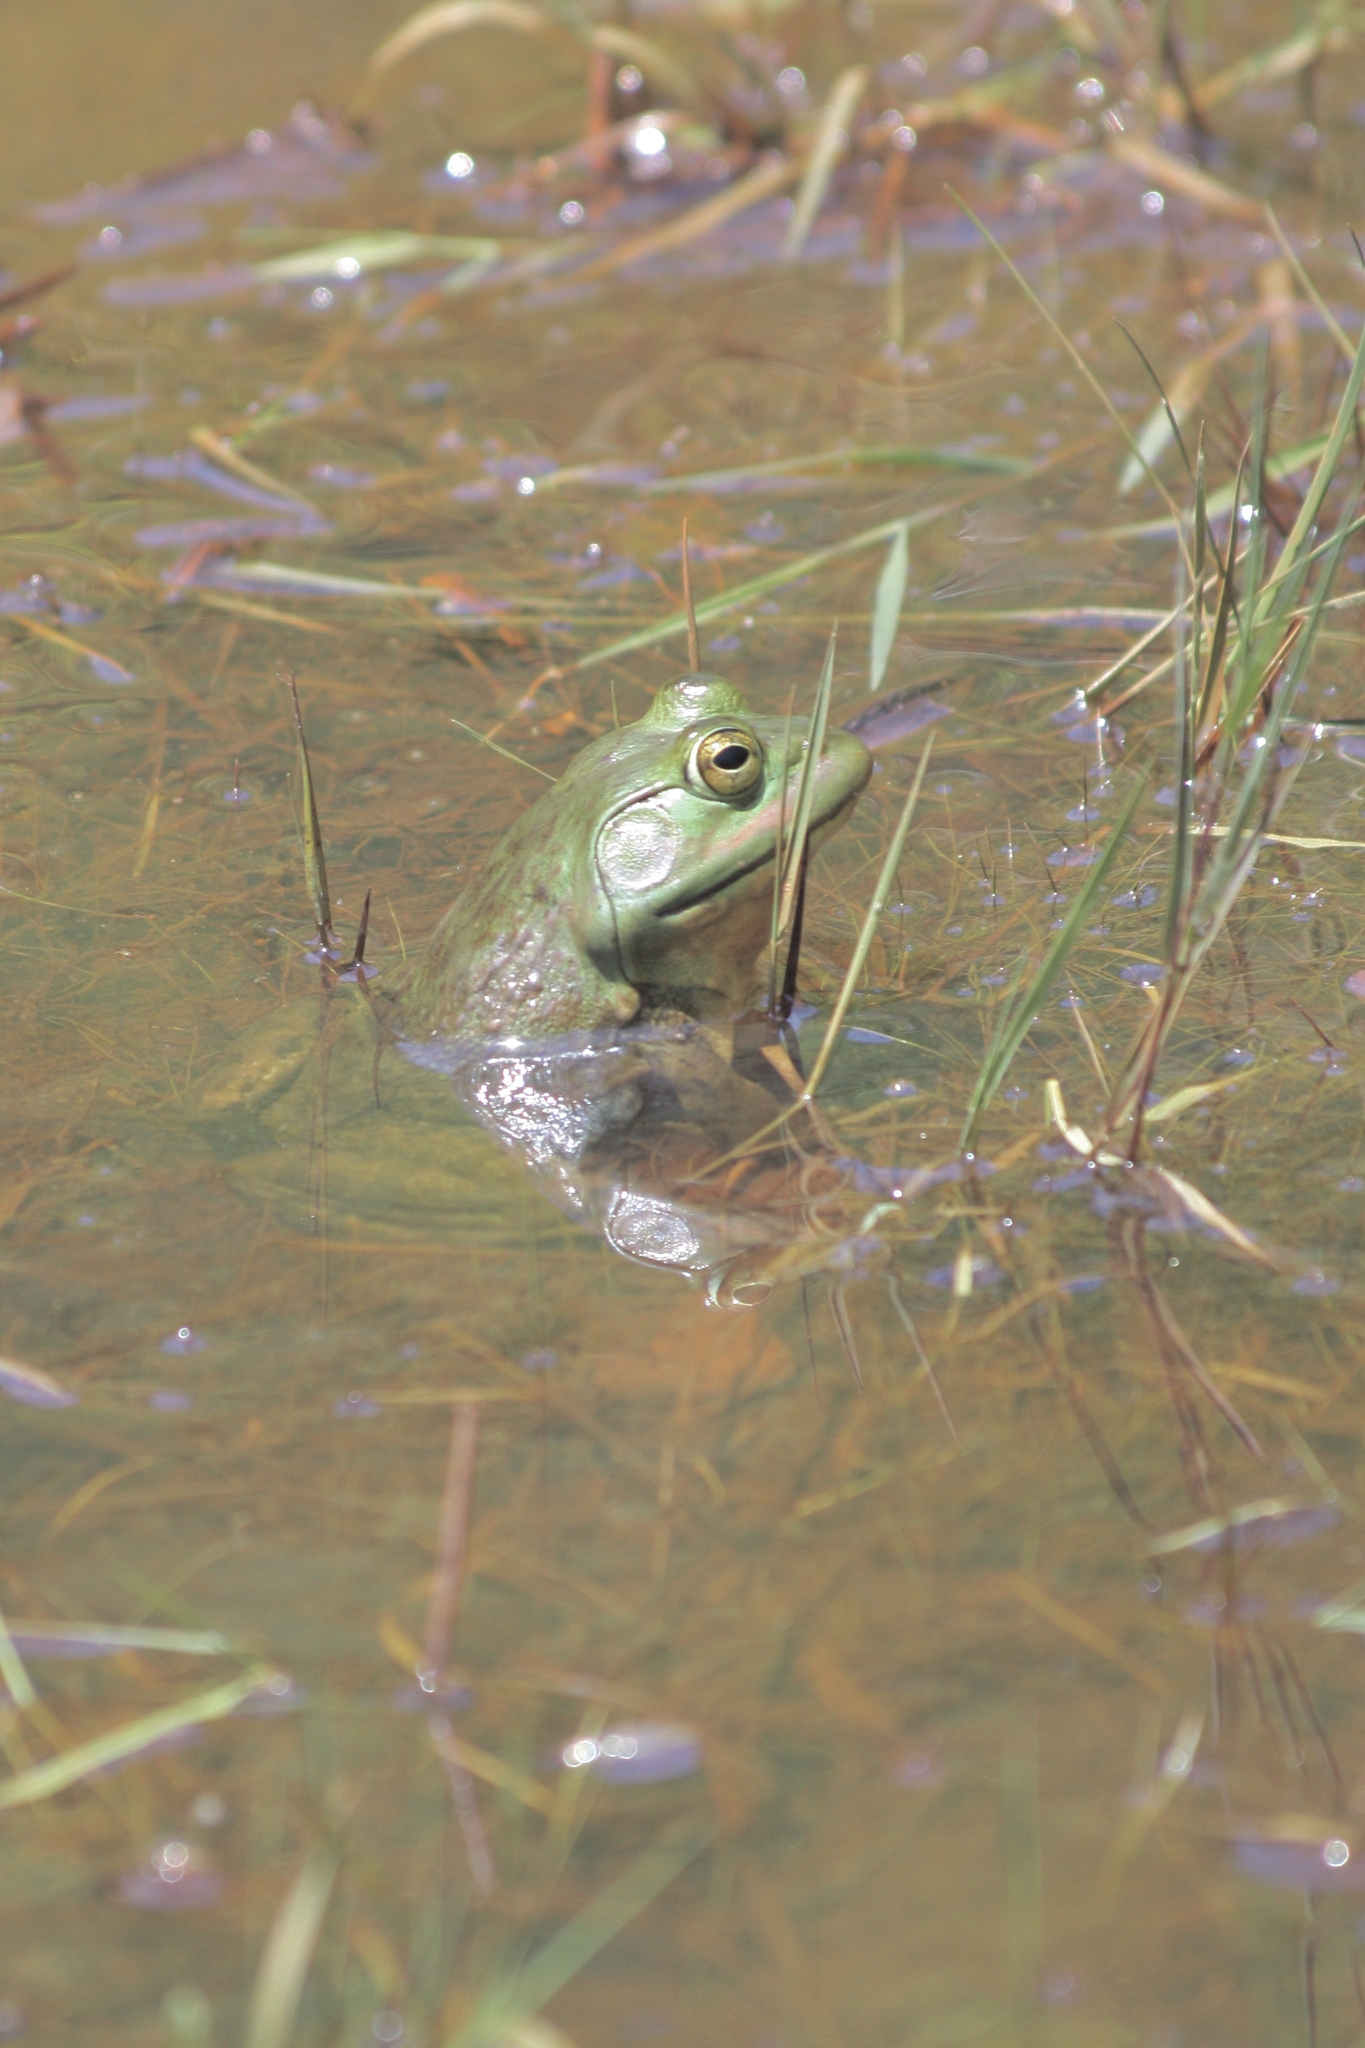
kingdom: Animalia
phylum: Chordata
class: Amphibia
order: Anura
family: Ranidae
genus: Lithobates
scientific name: Lithobates catesbeianus
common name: American bullfrog
